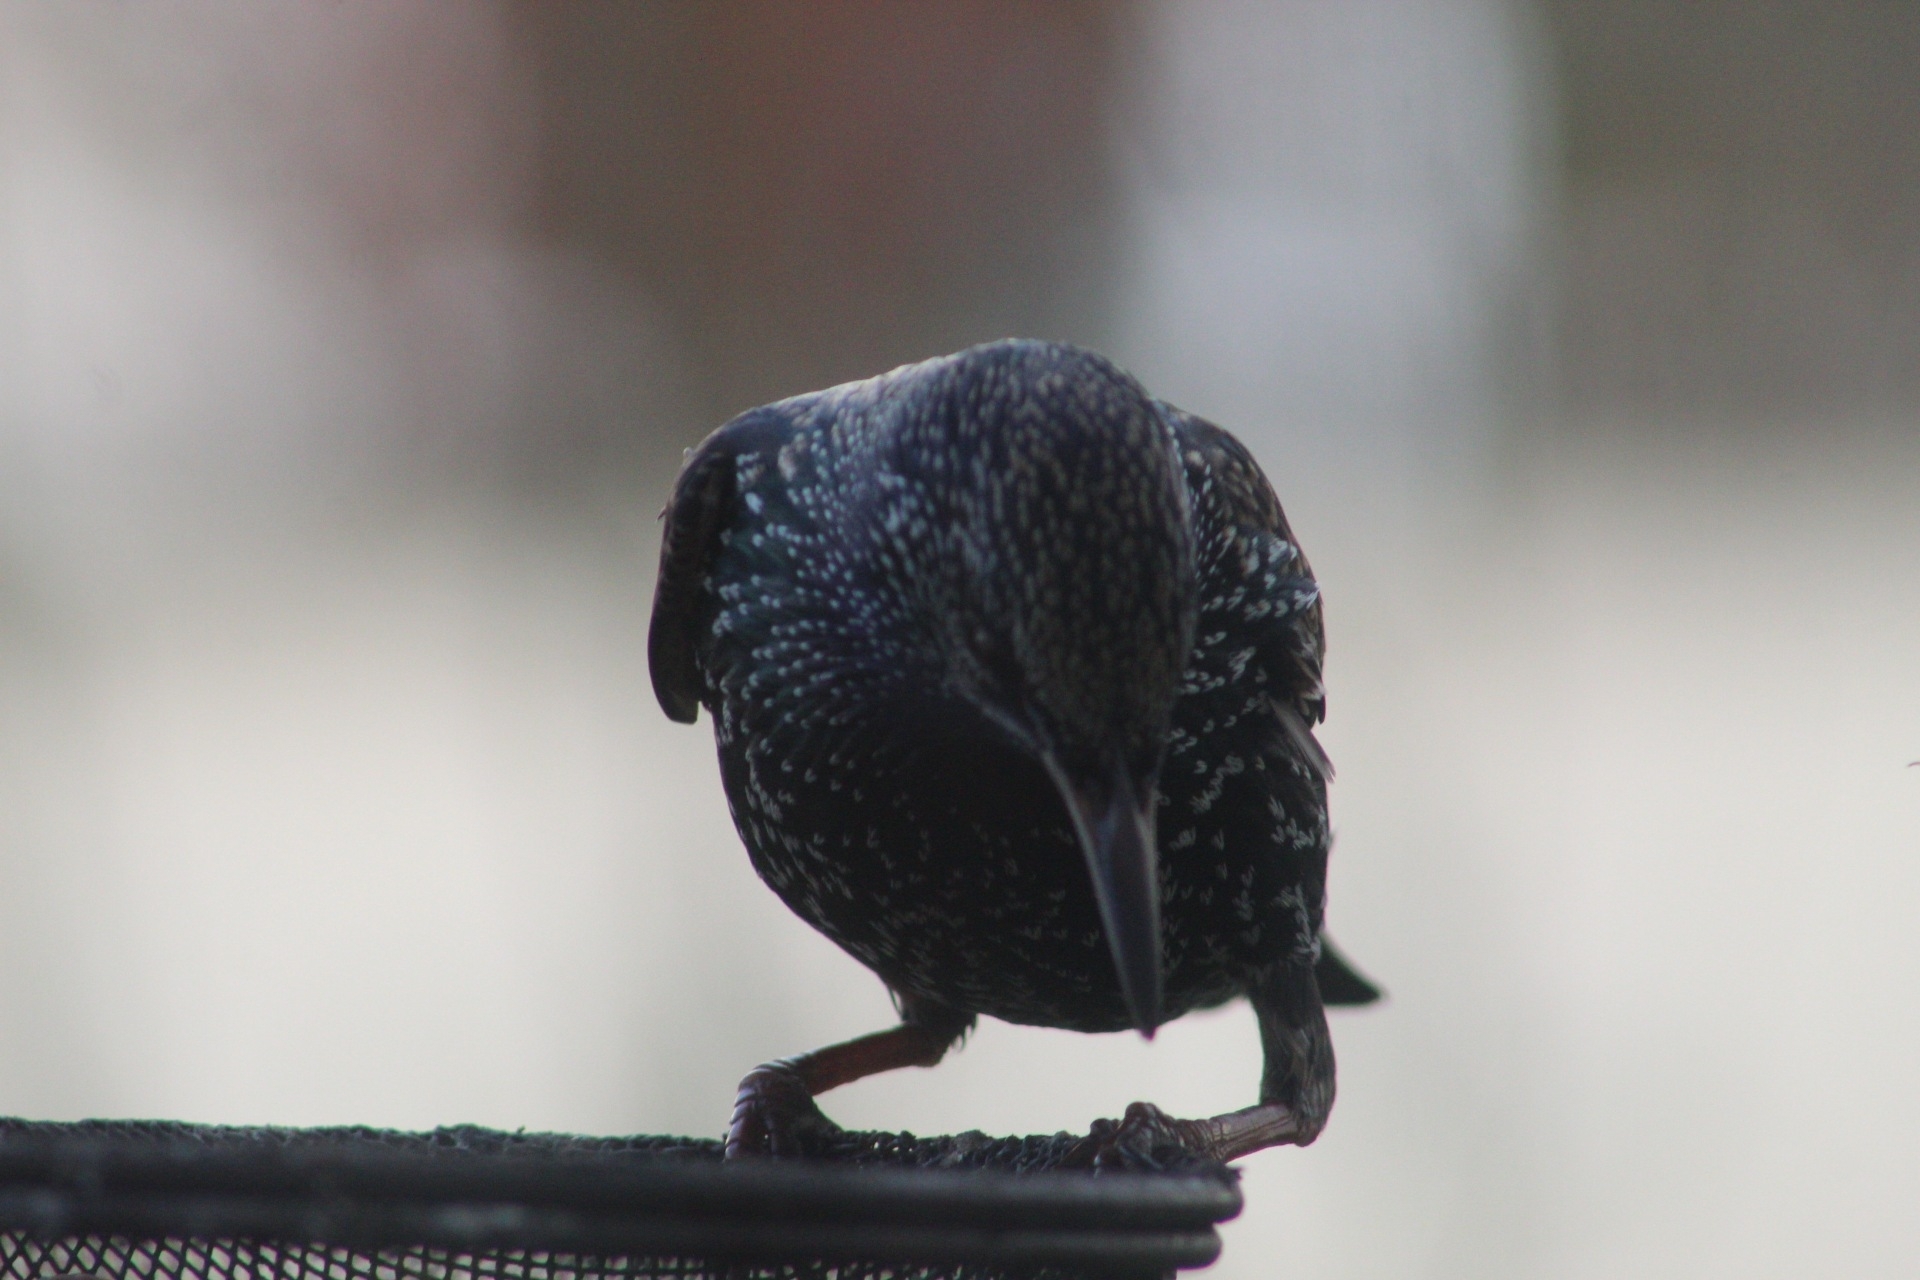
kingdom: Animalia
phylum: Chordata
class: Aves
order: Passeriformes
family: Sturnidae
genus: Sturnus
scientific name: Sturnus vulgaris
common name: Common starling
